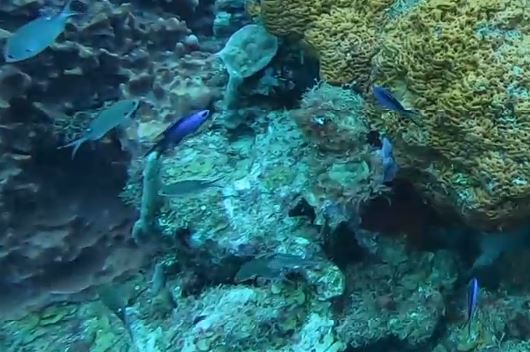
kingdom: Animalia
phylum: Chordata
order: Perciformes
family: Pomacentridae
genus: Chromis
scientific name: Chromis cyanea
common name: Blue chromis
